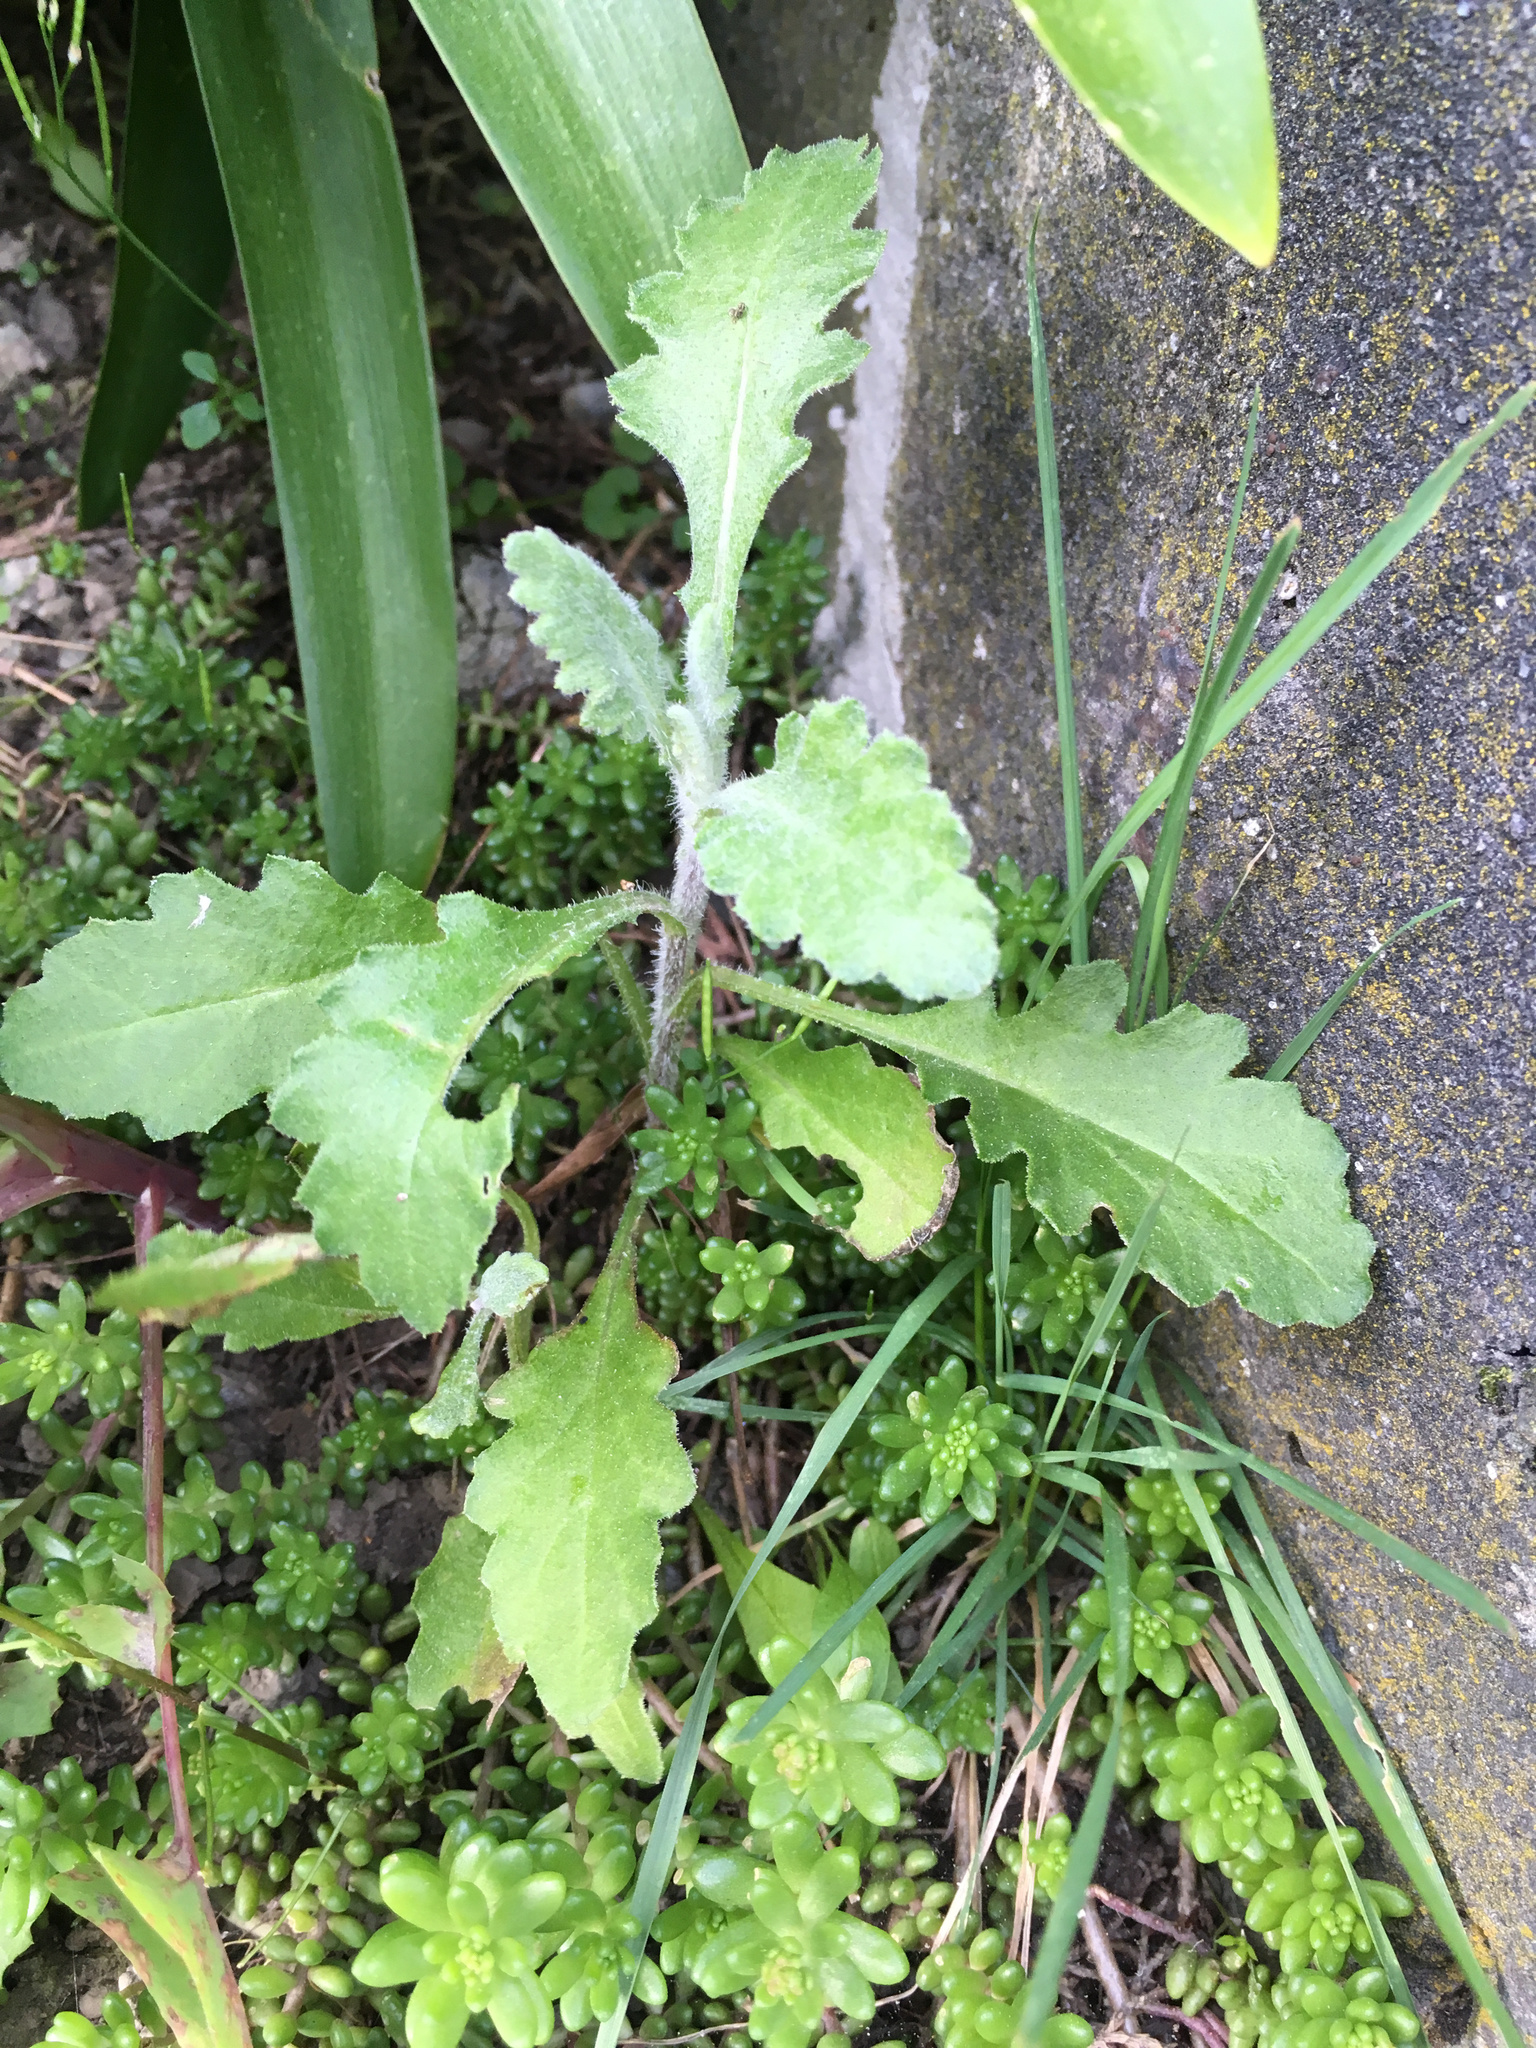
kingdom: Plantae
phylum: Tracheophyta
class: Magnoliopsida
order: Asterales
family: Asteraceae
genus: Senecio
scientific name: Senecio glomeratus
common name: Cutleaf burnweed
